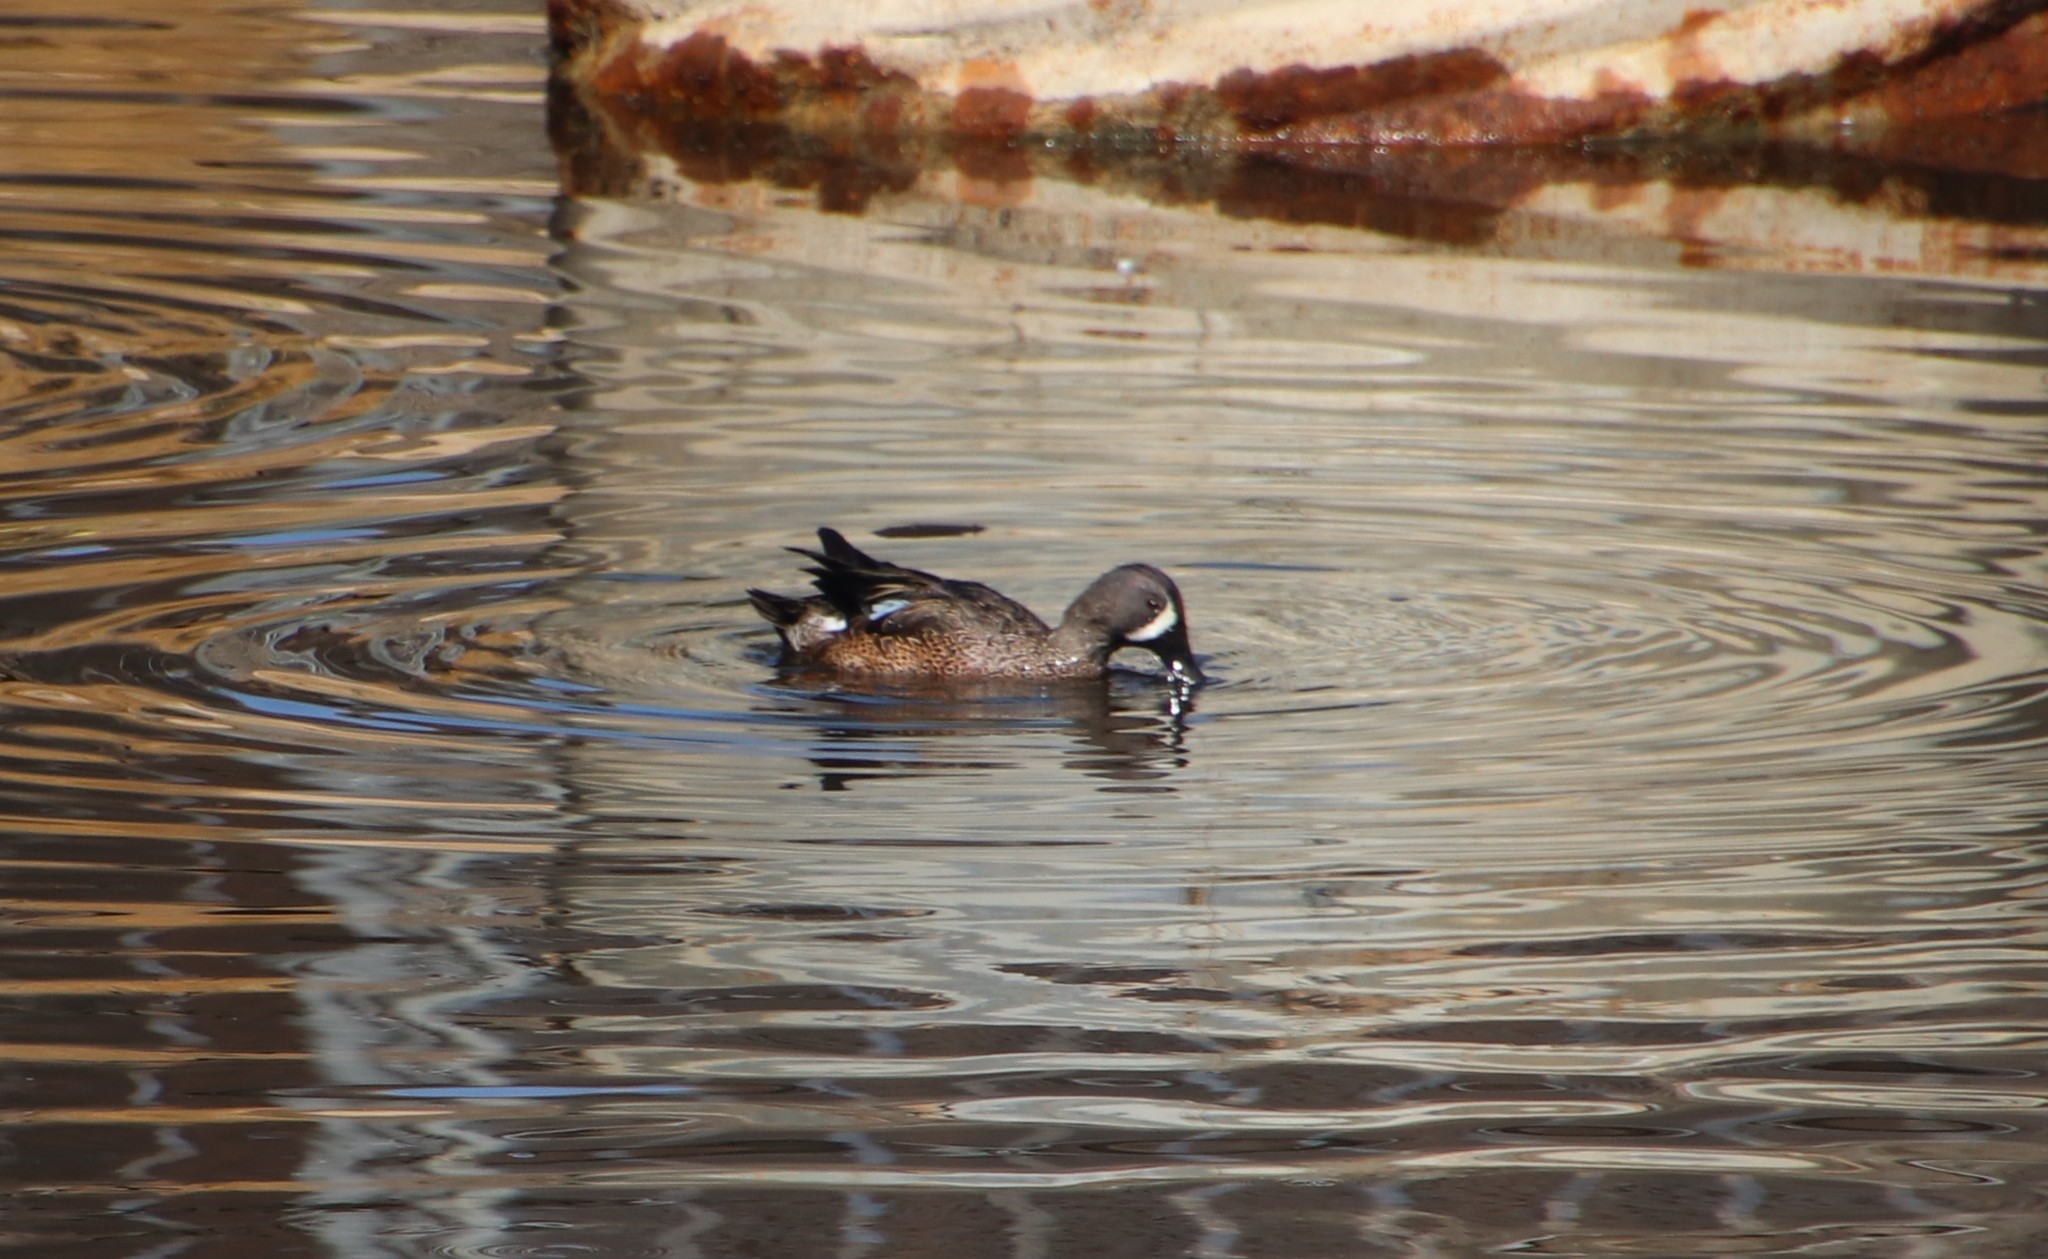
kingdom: Animalia
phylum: Chordata
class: Aves
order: Anseriformes
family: Anatidae
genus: Spatula
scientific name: Spatula discors
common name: Blue-winged teal
